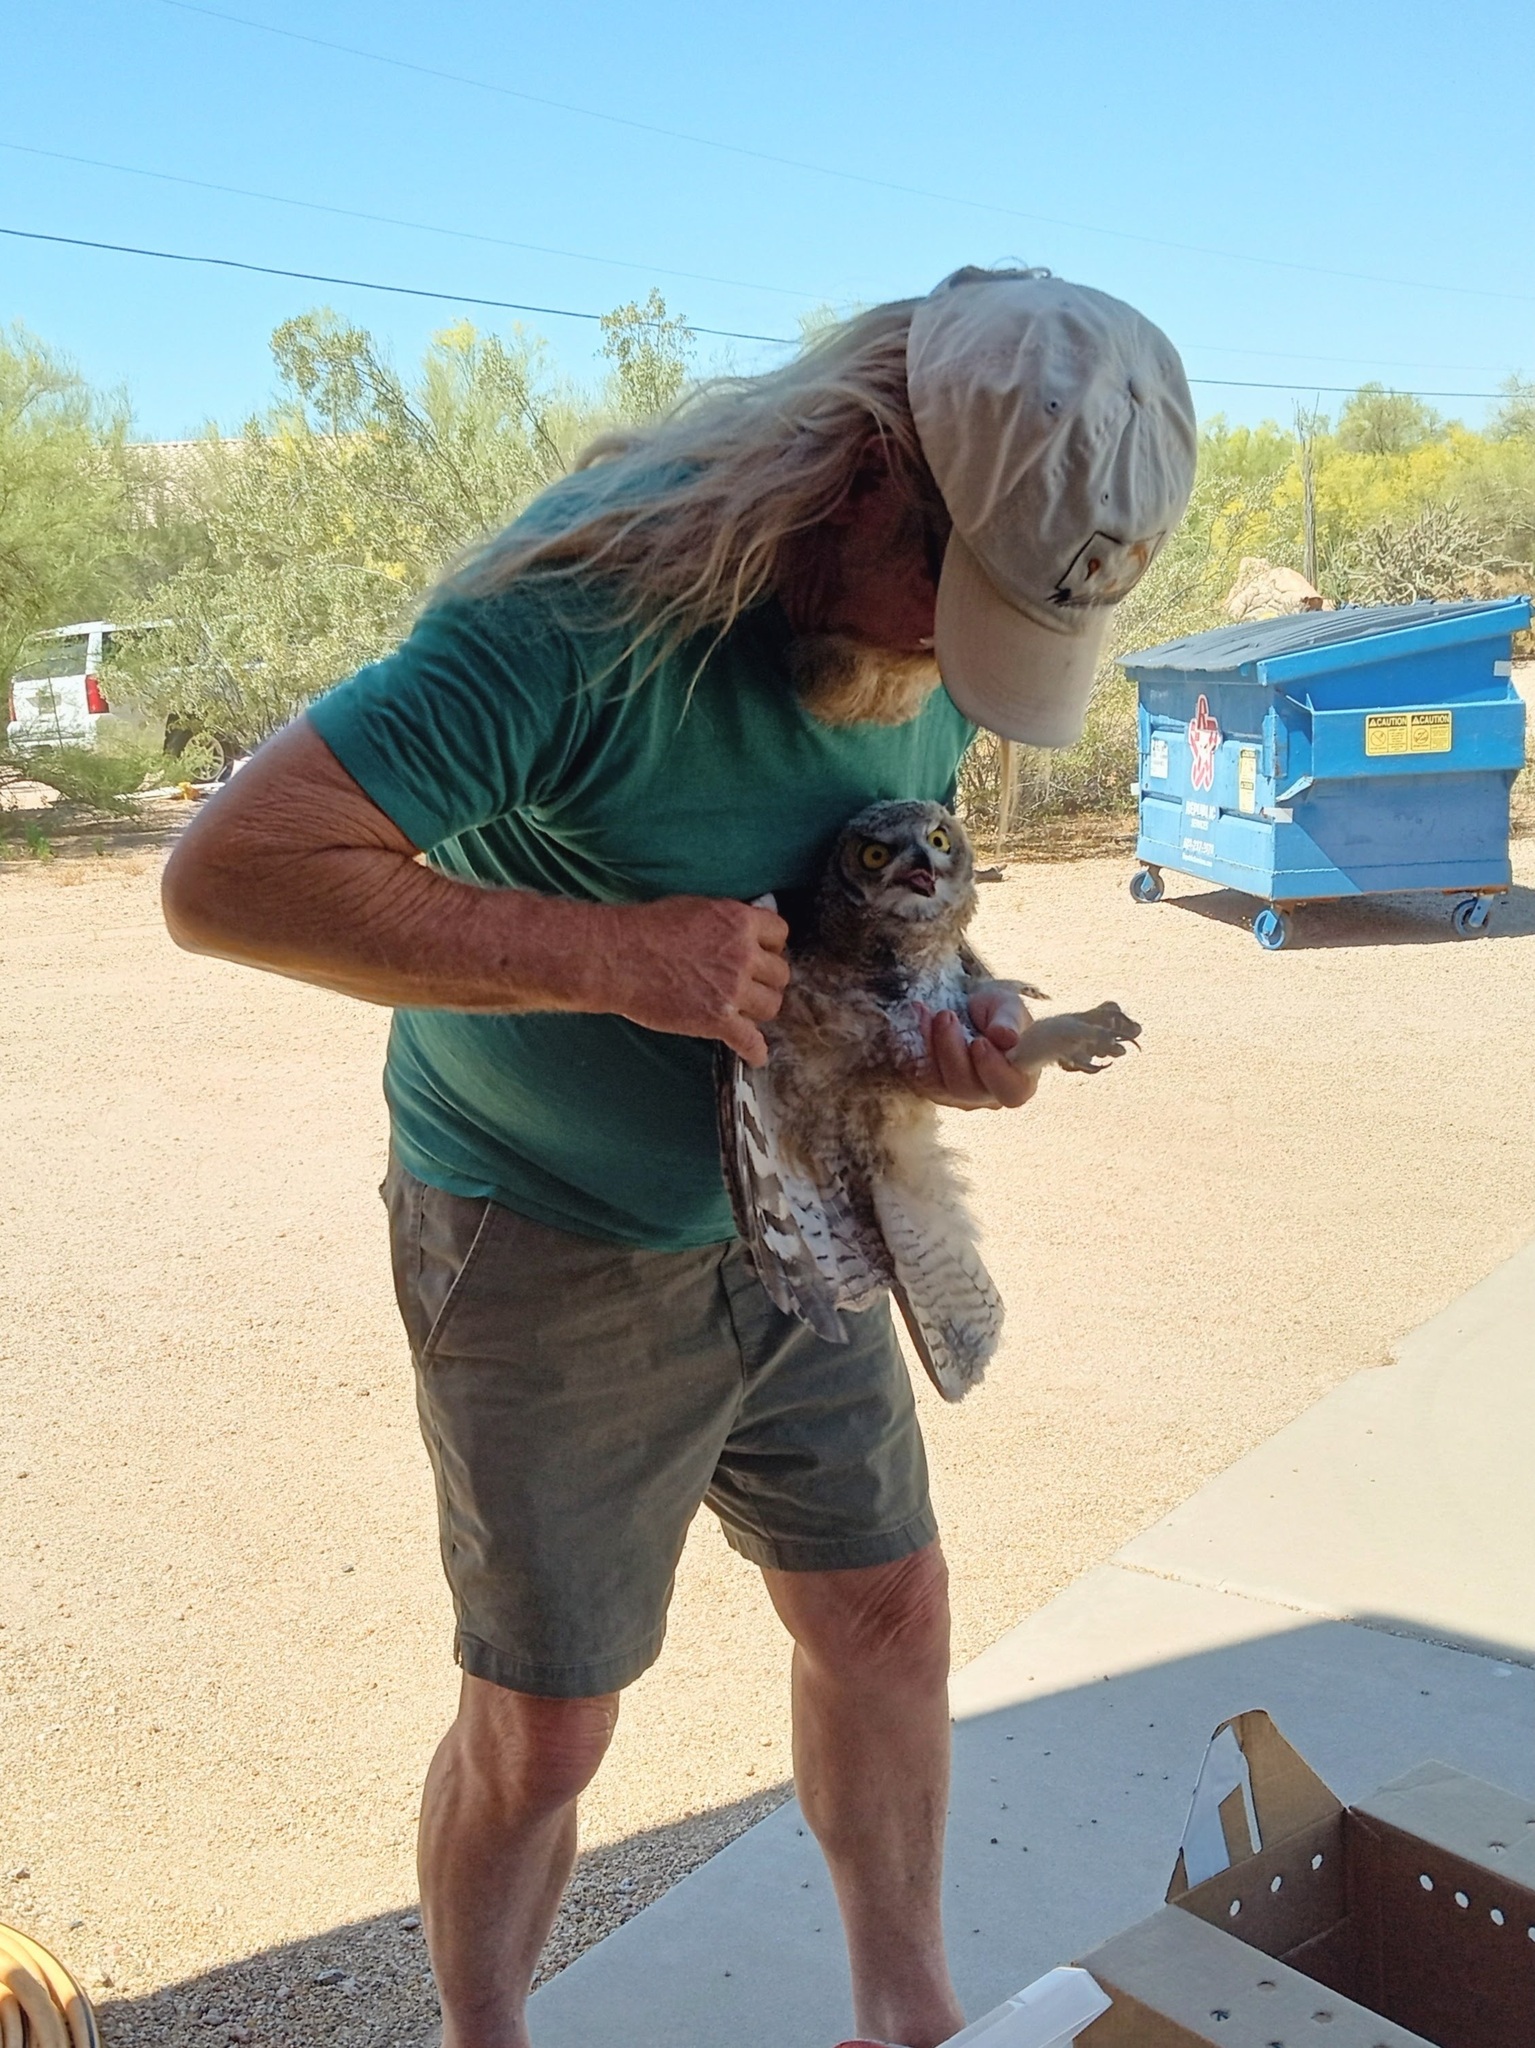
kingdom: Animalia
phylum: Chordata
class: Aves
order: Strigiformes
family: Strigidae
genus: Bubo
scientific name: Bubo virginianus
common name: Great horned owl
